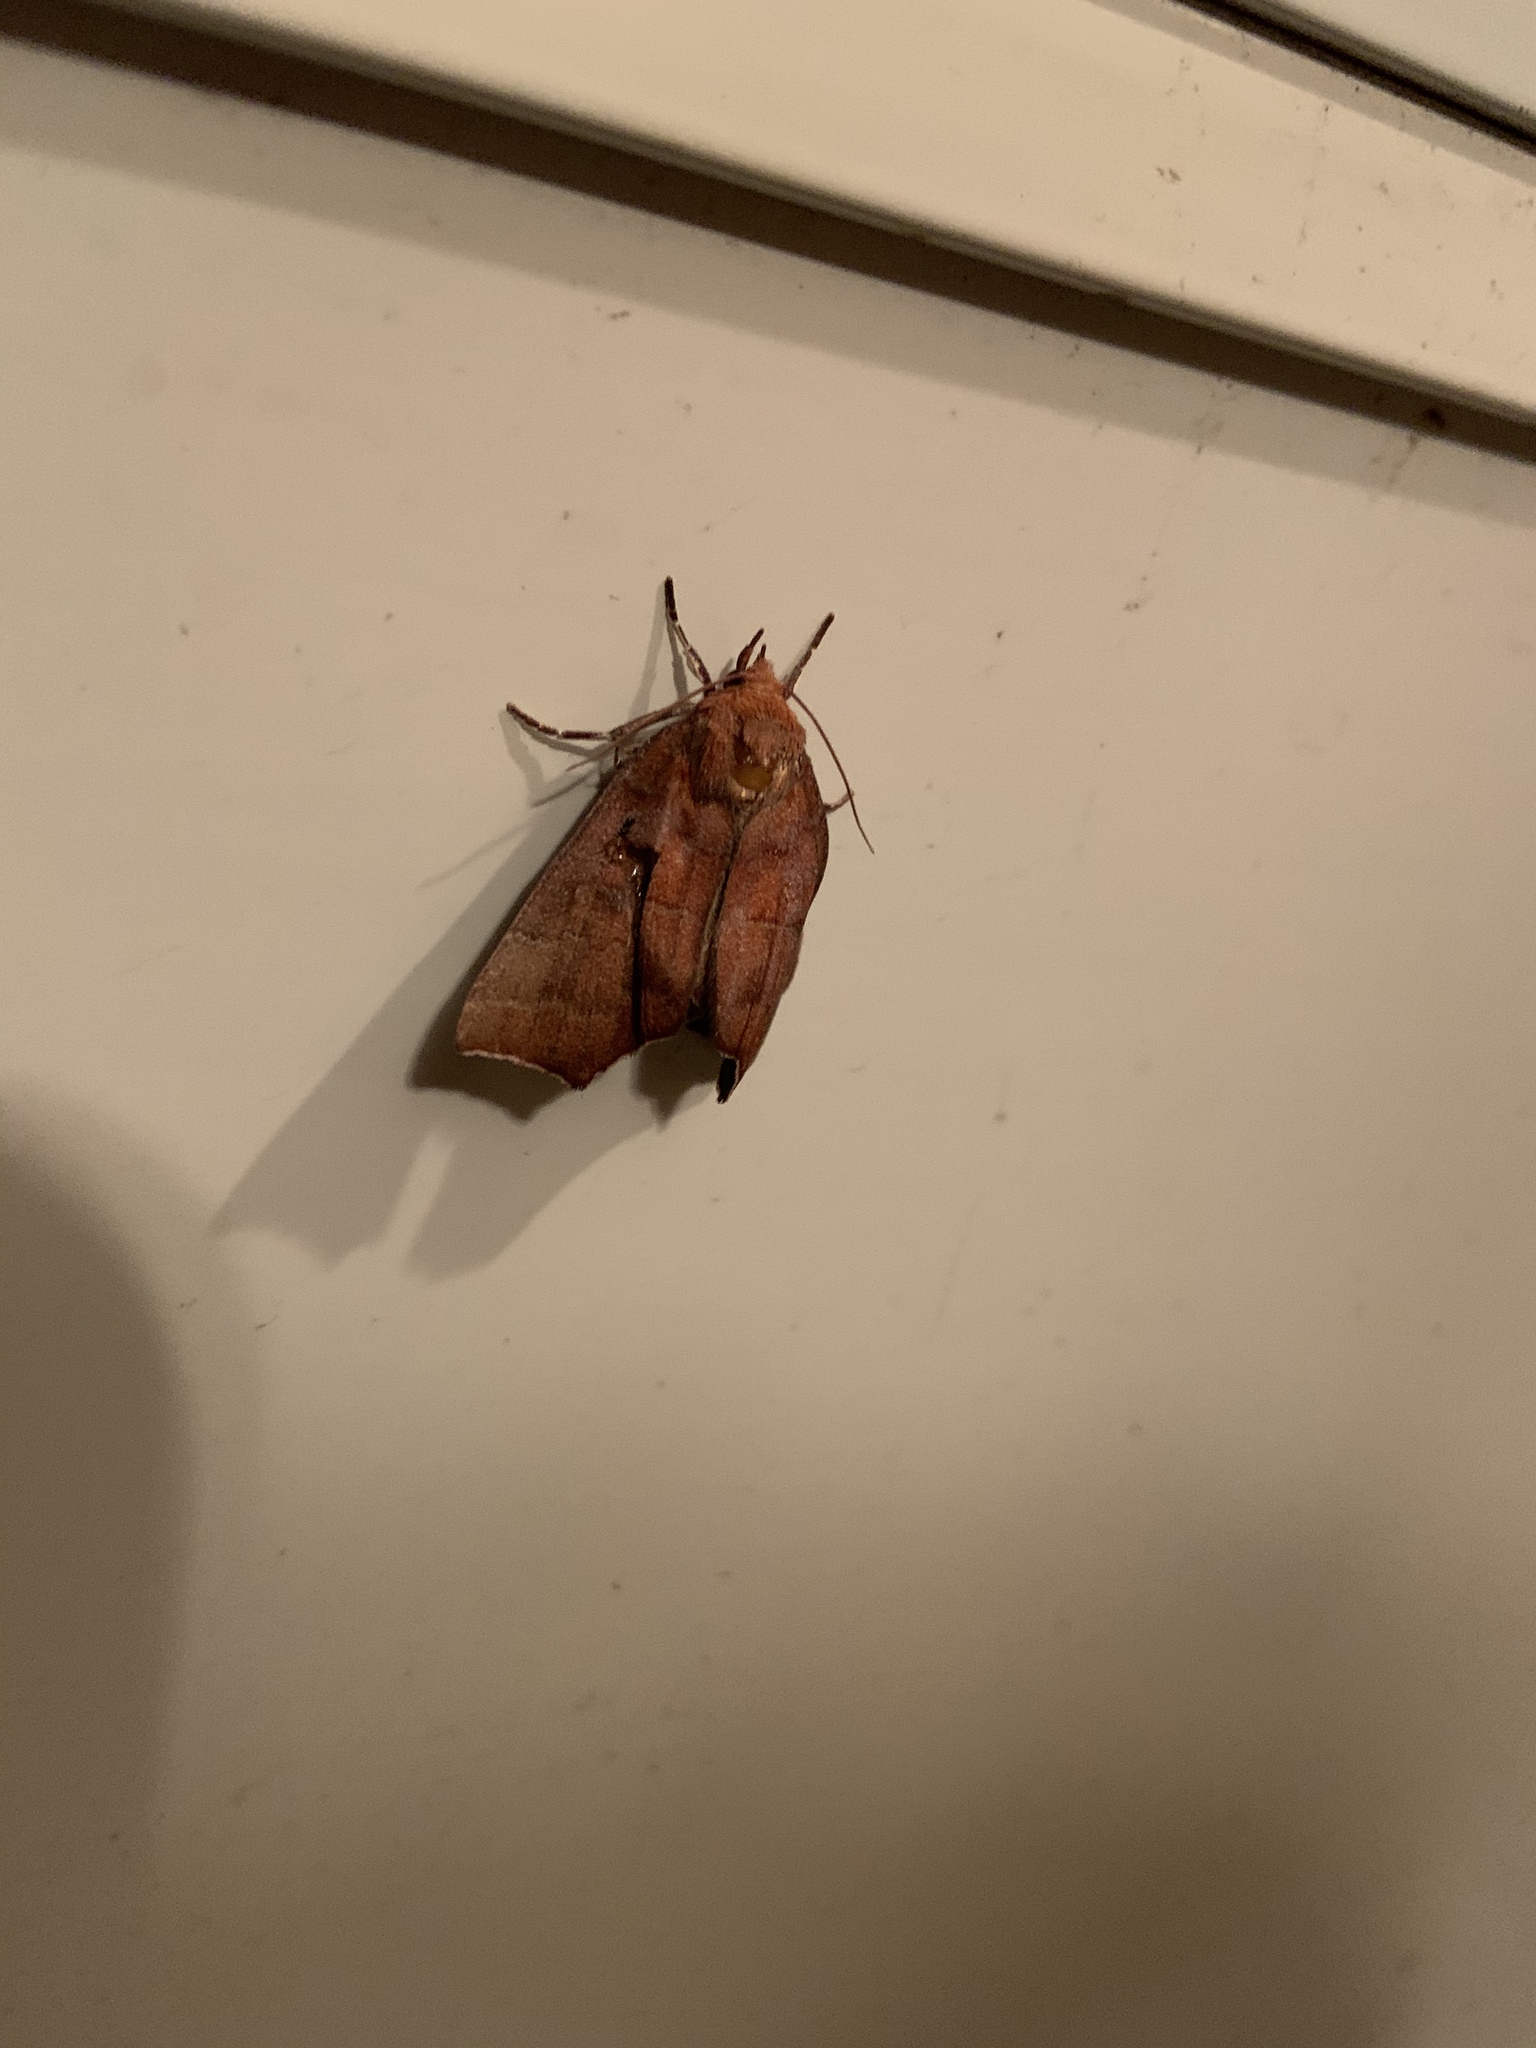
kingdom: Animalia
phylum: Arthropoda
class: Insecta
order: Lepidoptera
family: Erebidae
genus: Rusicada
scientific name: Rusicada privata
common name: Hibiscus leaf caterpillar moth
